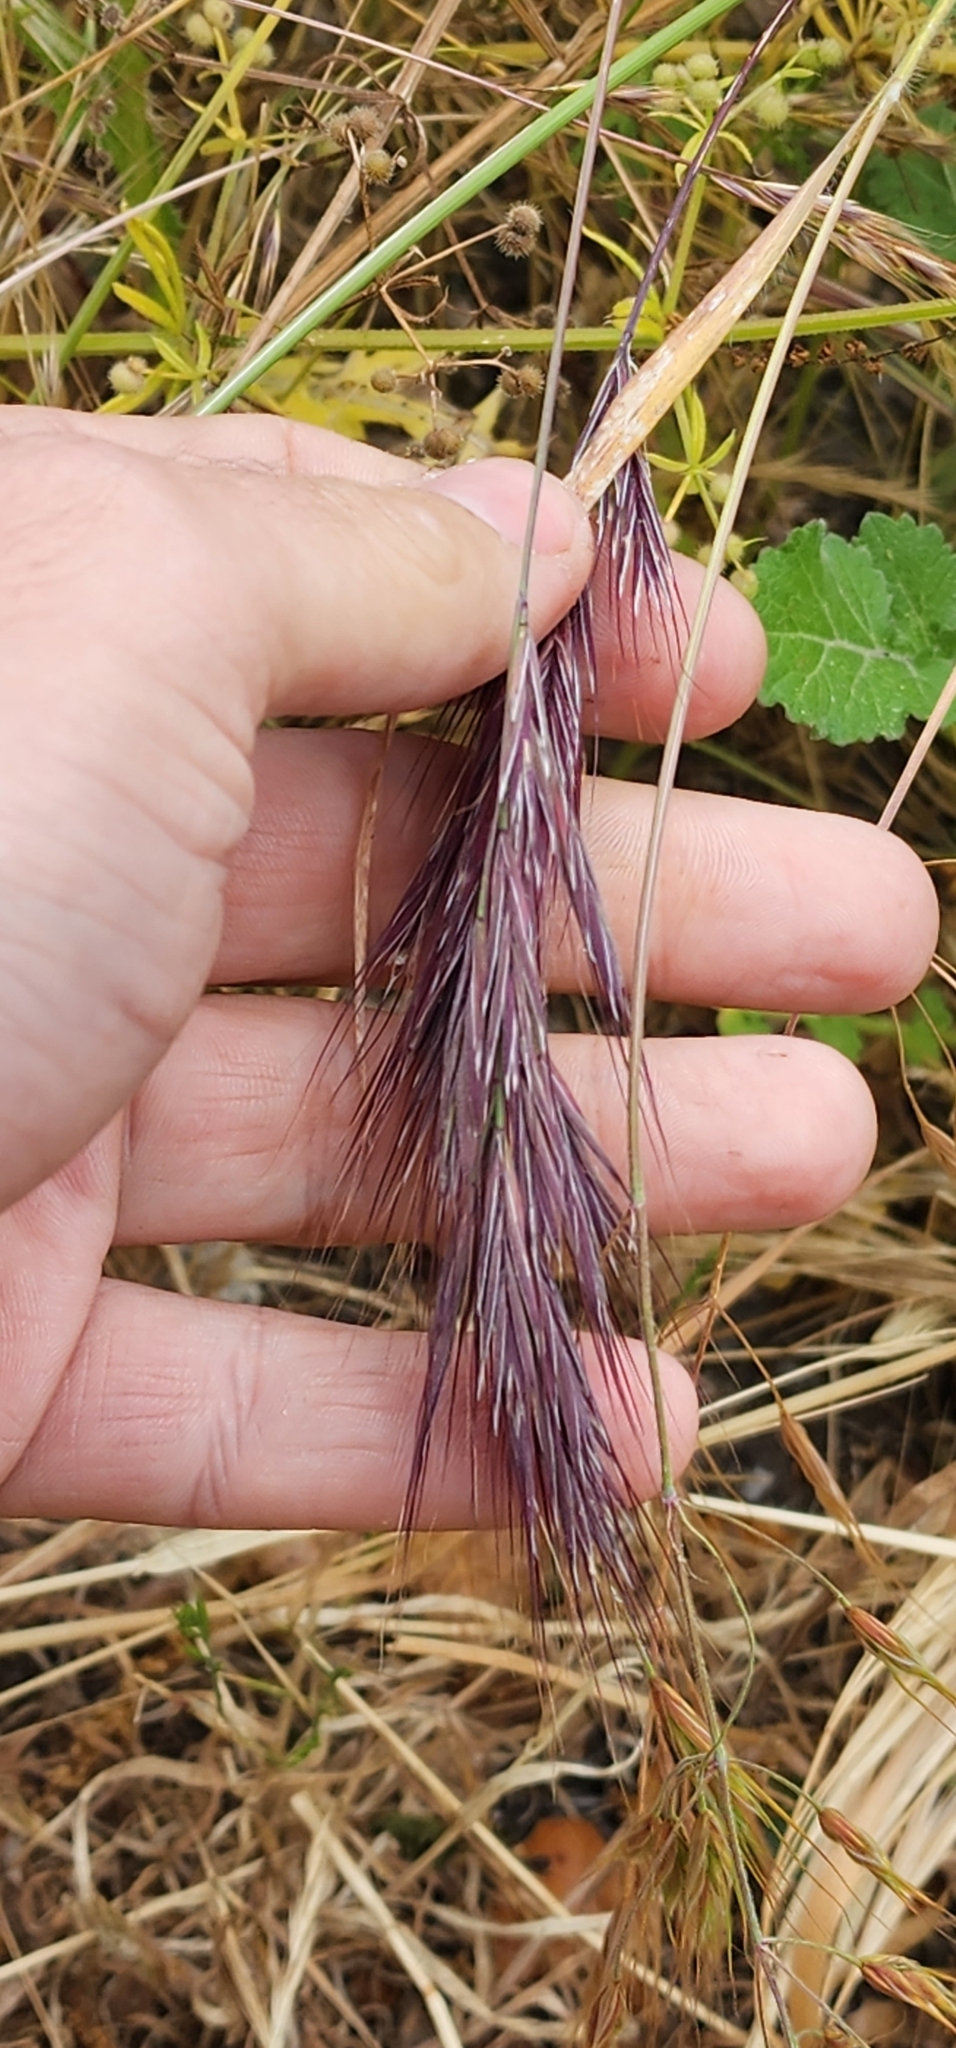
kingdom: Plantae
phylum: Tracheophyta
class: Liliopsida
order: Poales
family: Poaceae
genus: Bromus
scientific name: Bromus rubens
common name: Red brome
